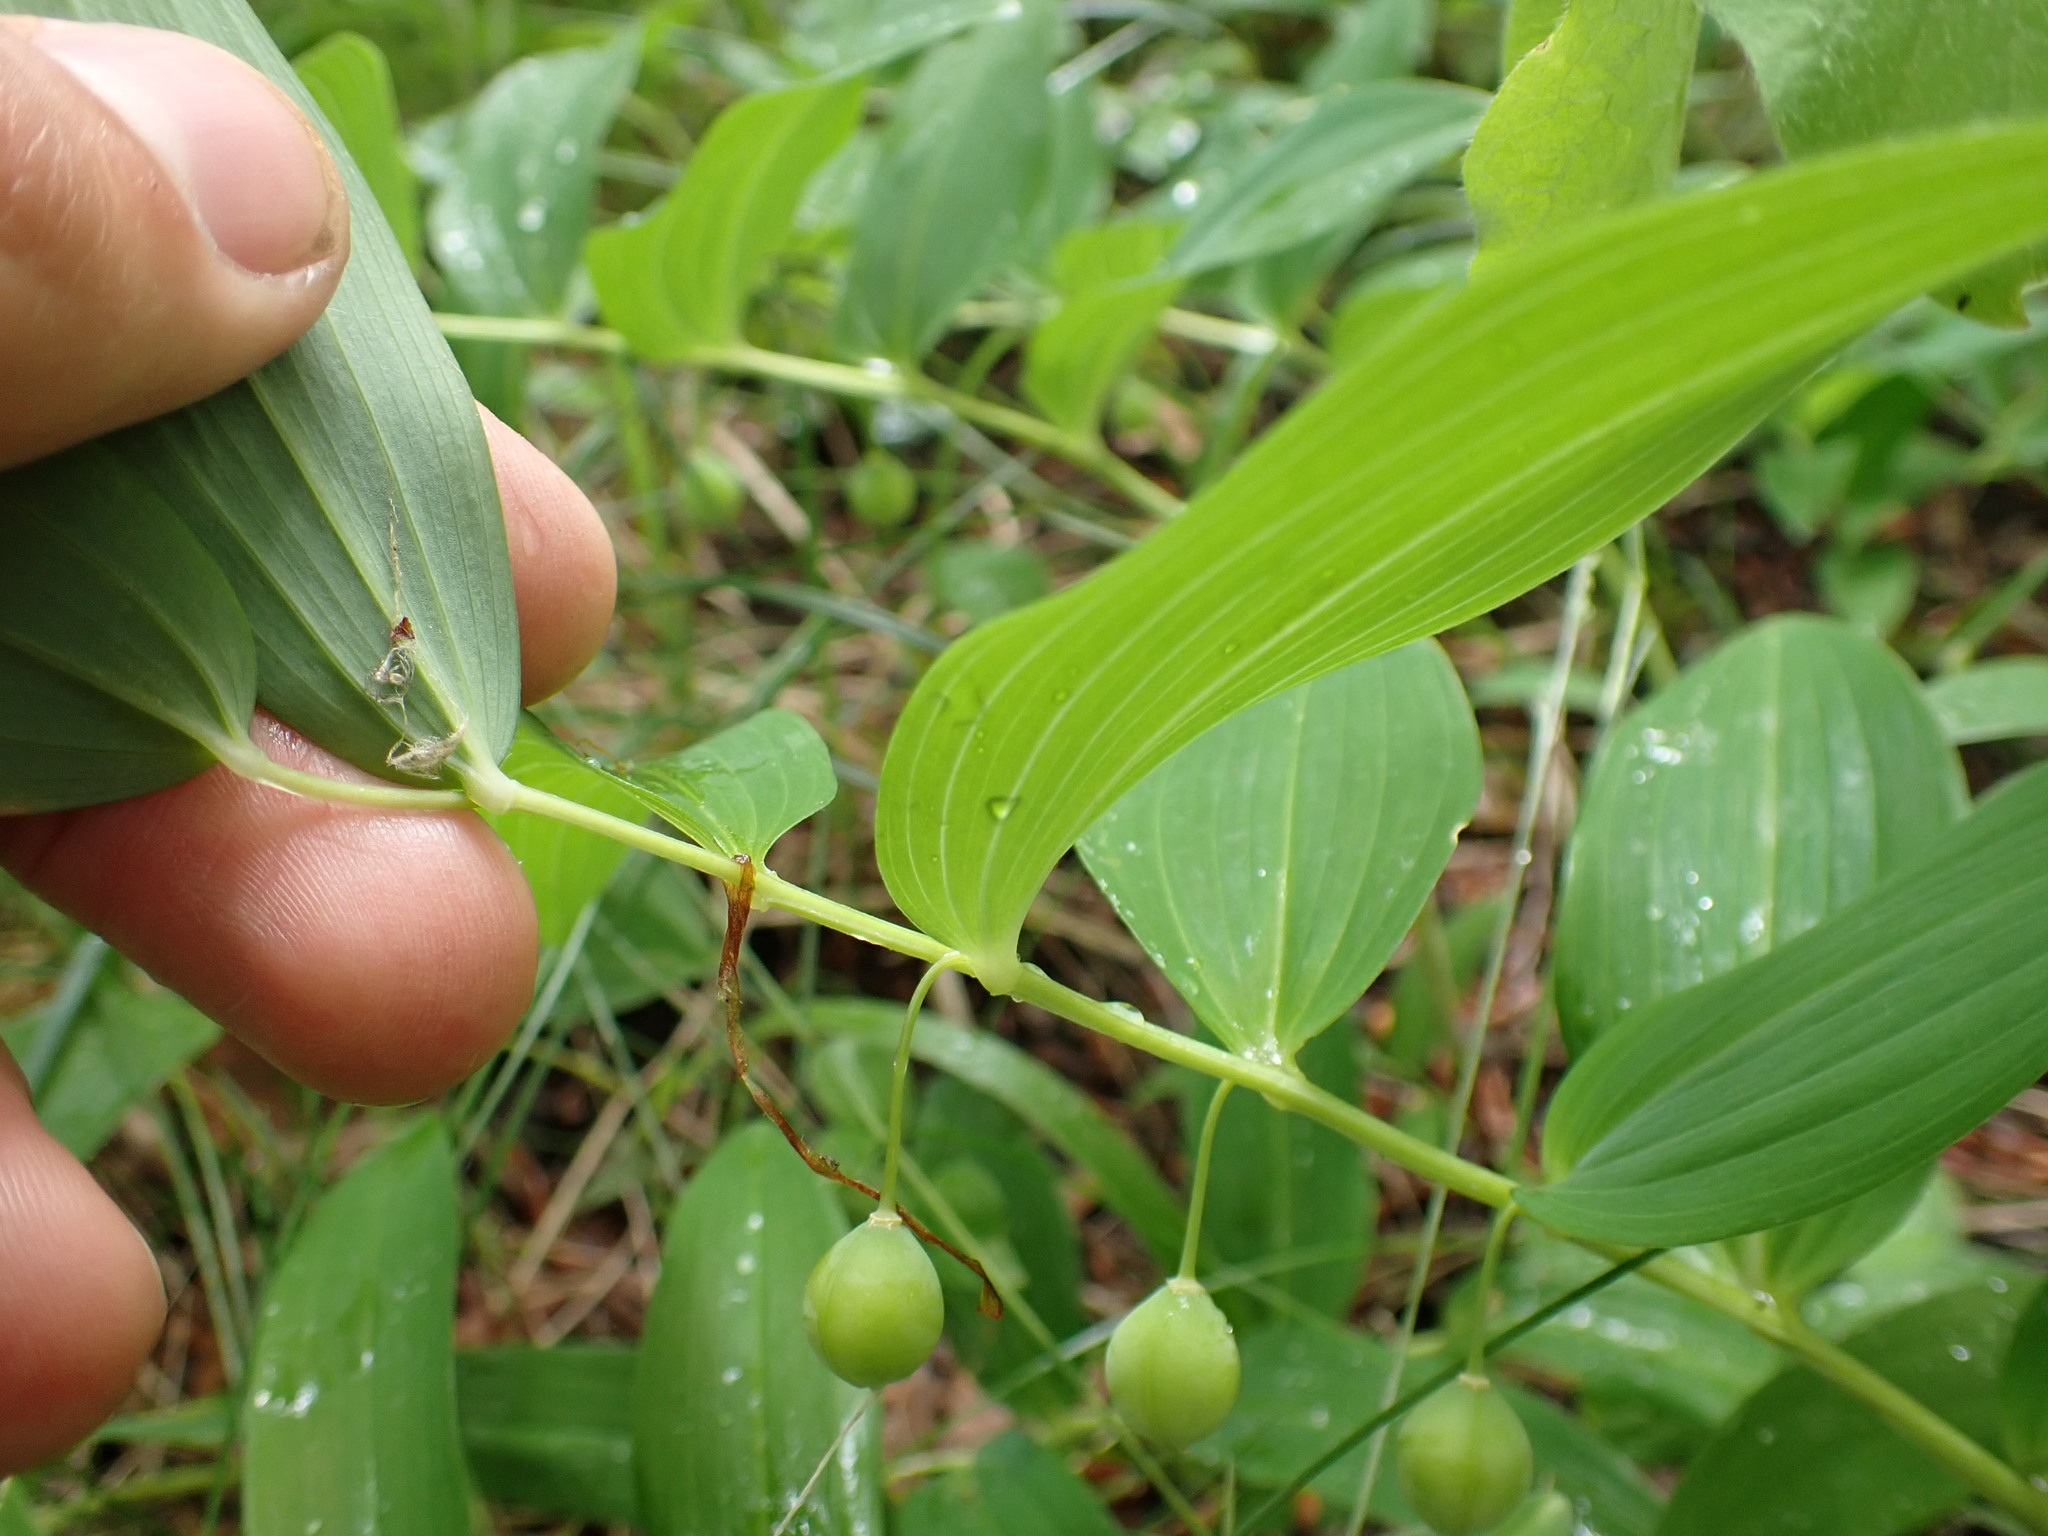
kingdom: Plantae
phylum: Tracheophyta
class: Liliopsida
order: Asparagales
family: Asparagaceae
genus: Polygonatum
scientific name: Polygonatum odoratum
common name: Angular solomon's-seal
